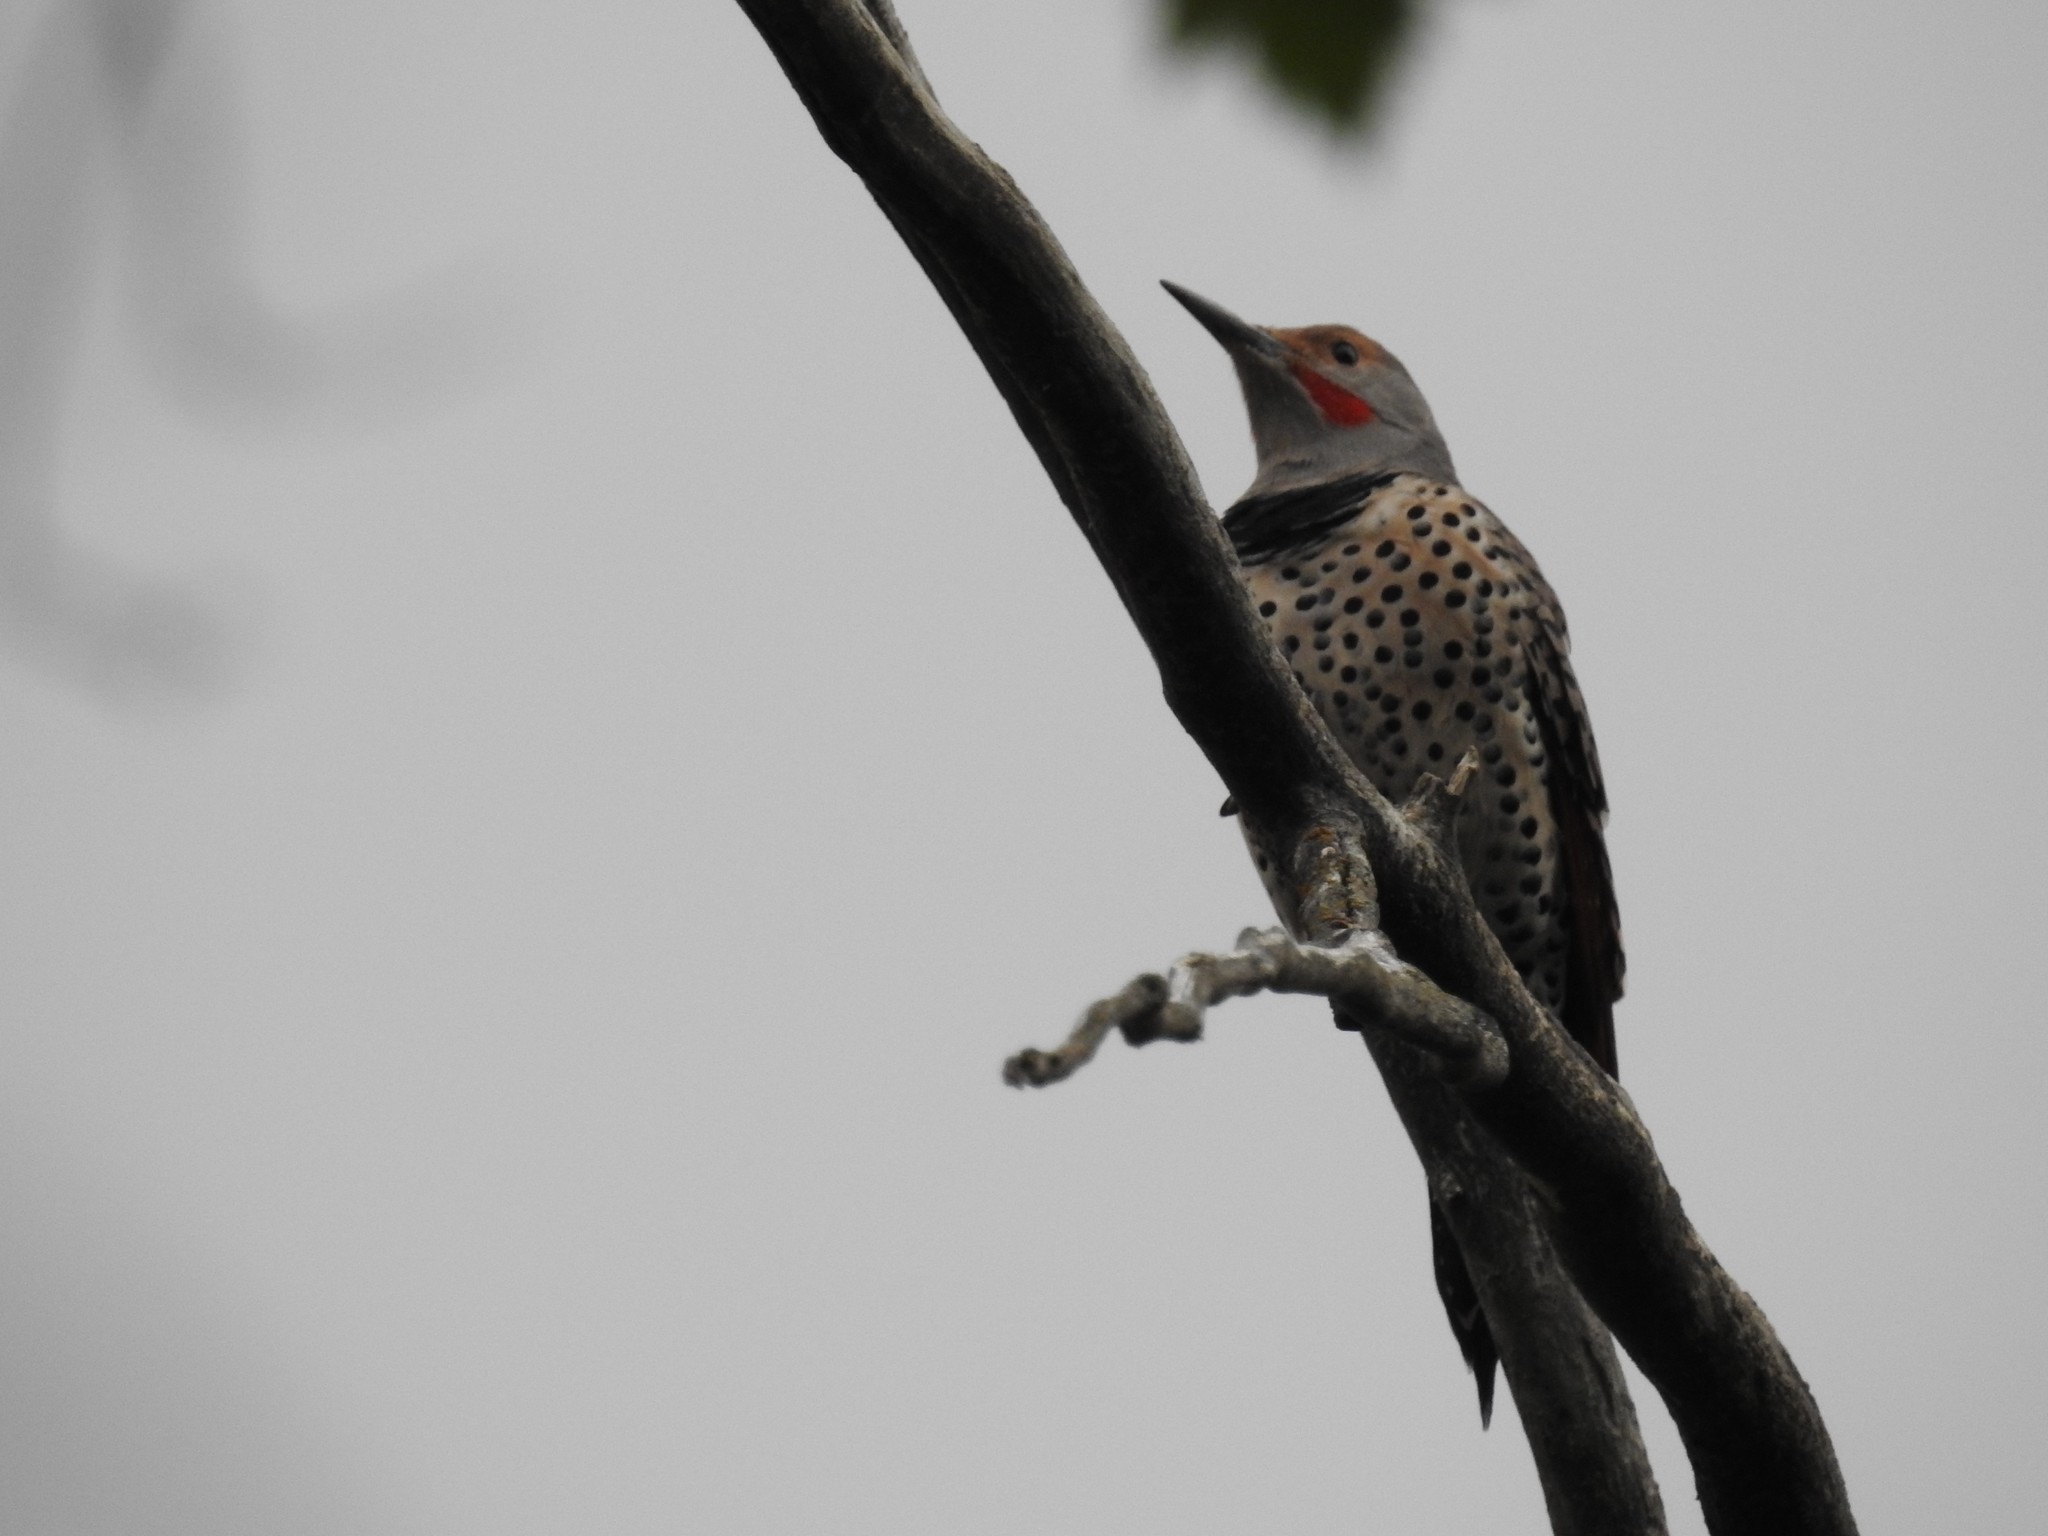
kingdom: Animalia
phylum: Chordata
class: Aves
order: Piciformes
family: Picidae
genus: Colaptes
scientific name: Colaptes auratus
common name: Northern flicker
